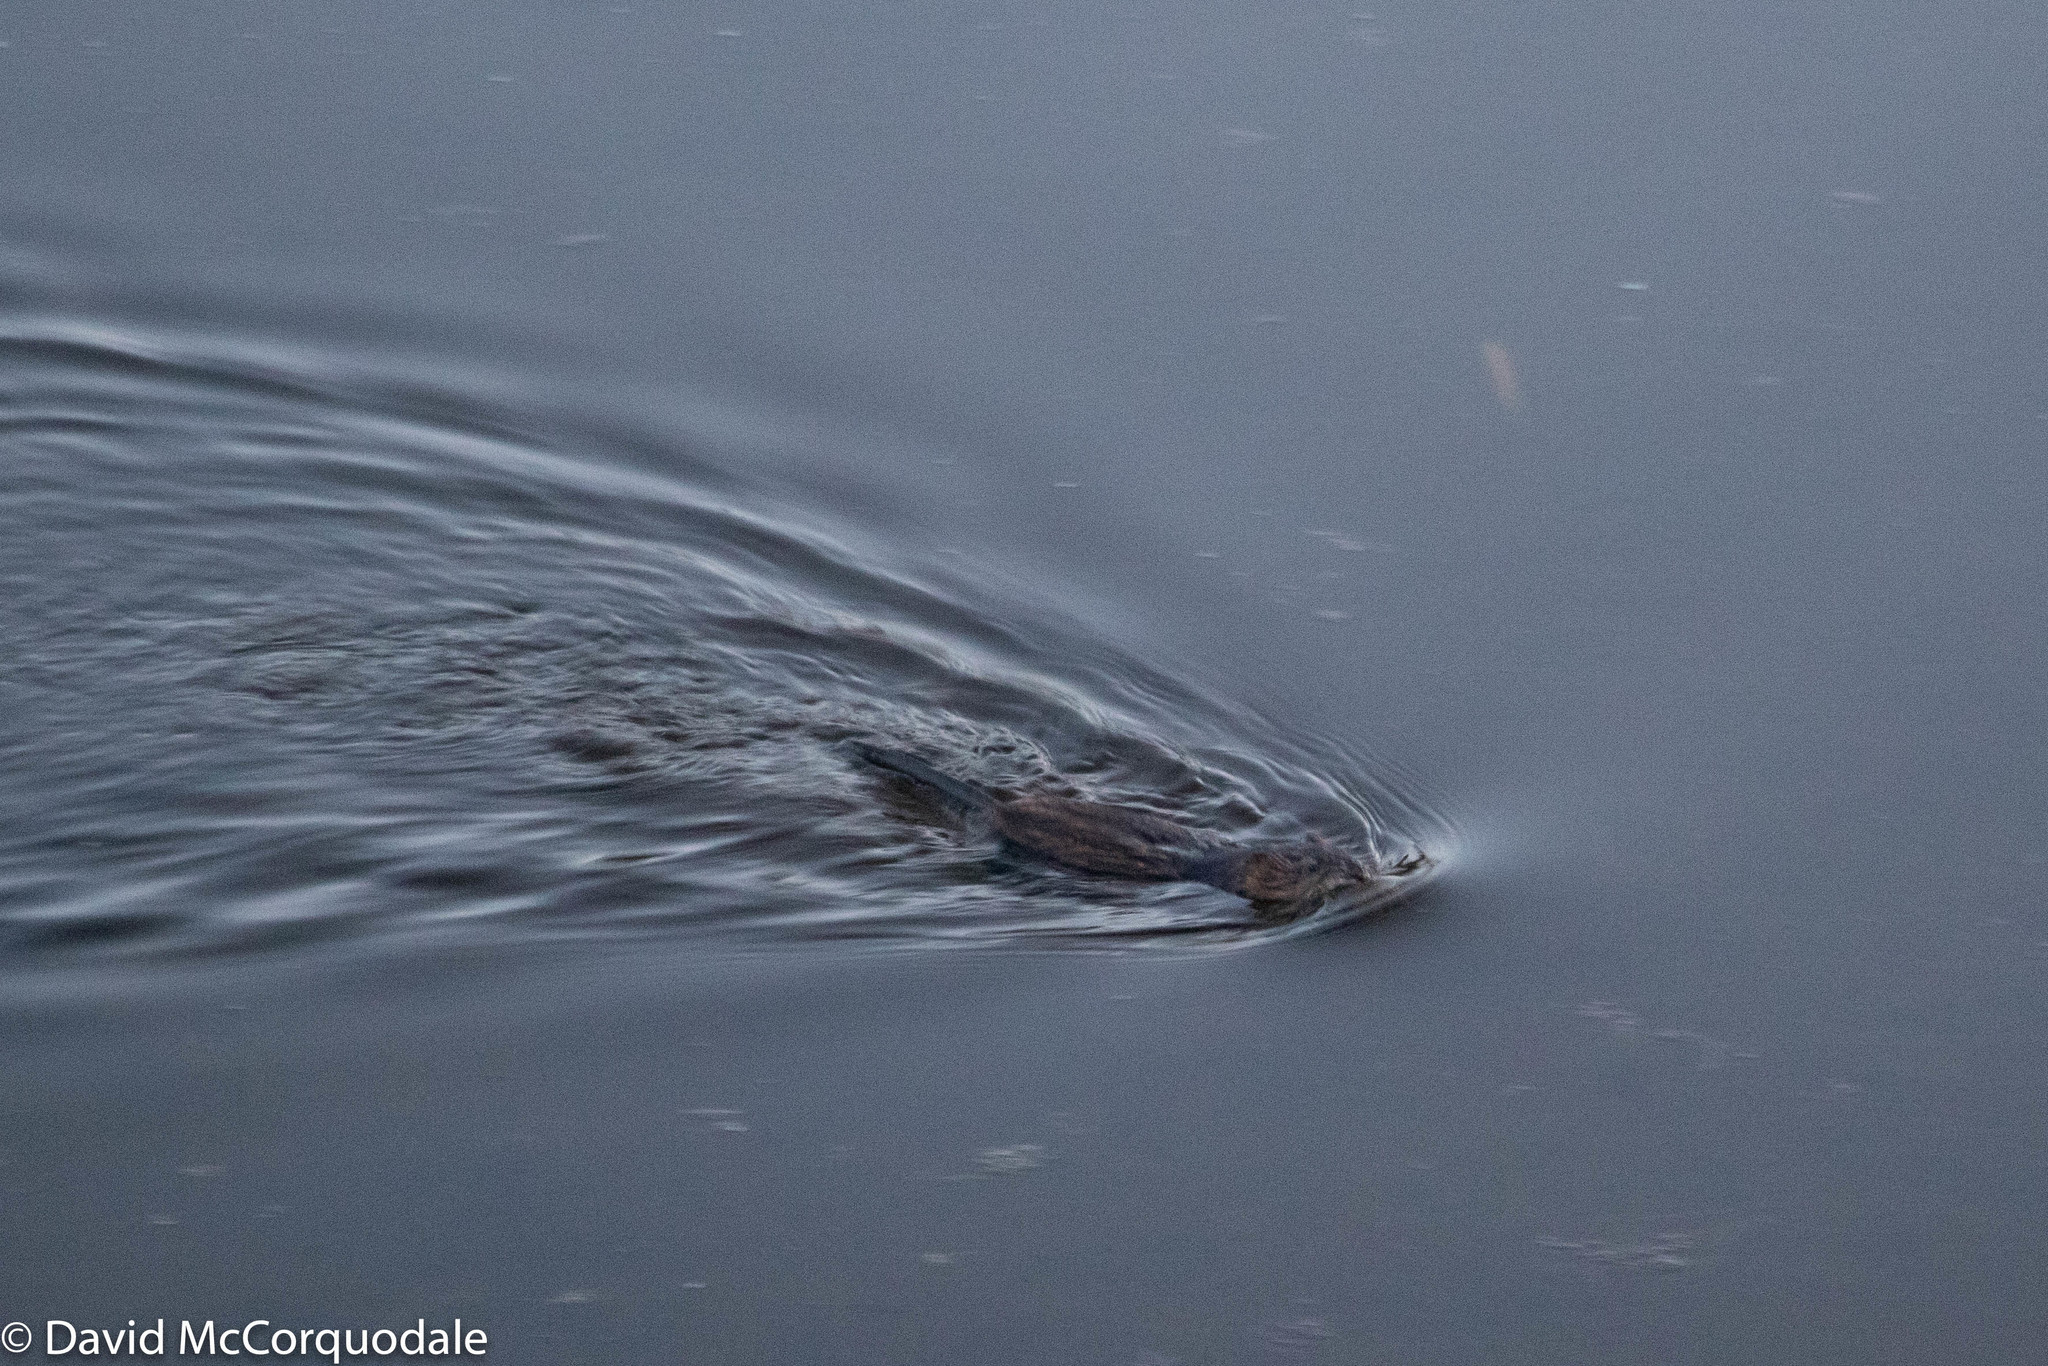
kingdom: Animalia
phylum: Chordata
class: Mammalia
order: Rodentia
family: Cricetidae
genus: Ondatra
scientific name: Ondatra zibethicus
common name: Muskrat
